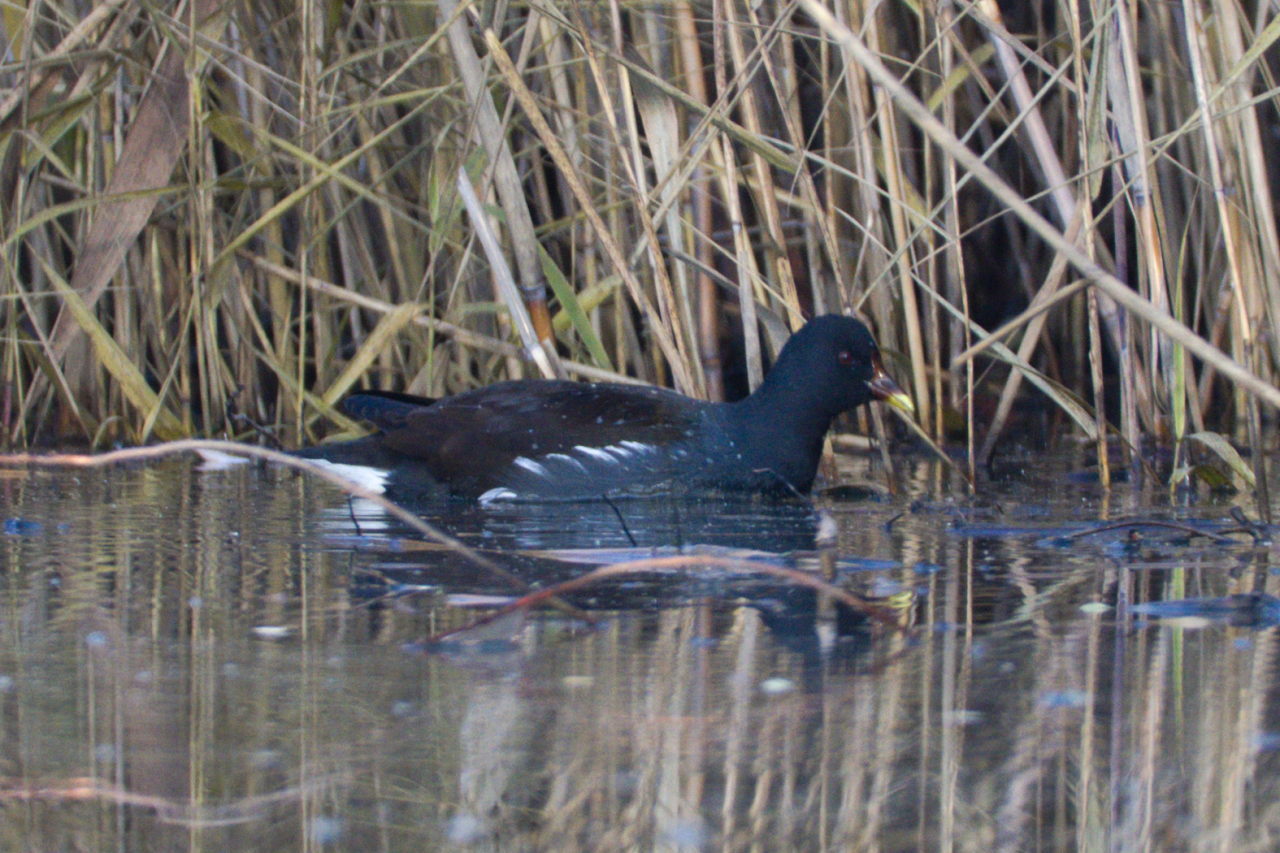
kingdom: Animalia
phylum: Chordata
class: Aves
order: Gruiformes
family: Rallidae
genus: Gallinula
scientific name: Gallinula chloropus
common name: Common moorhen
